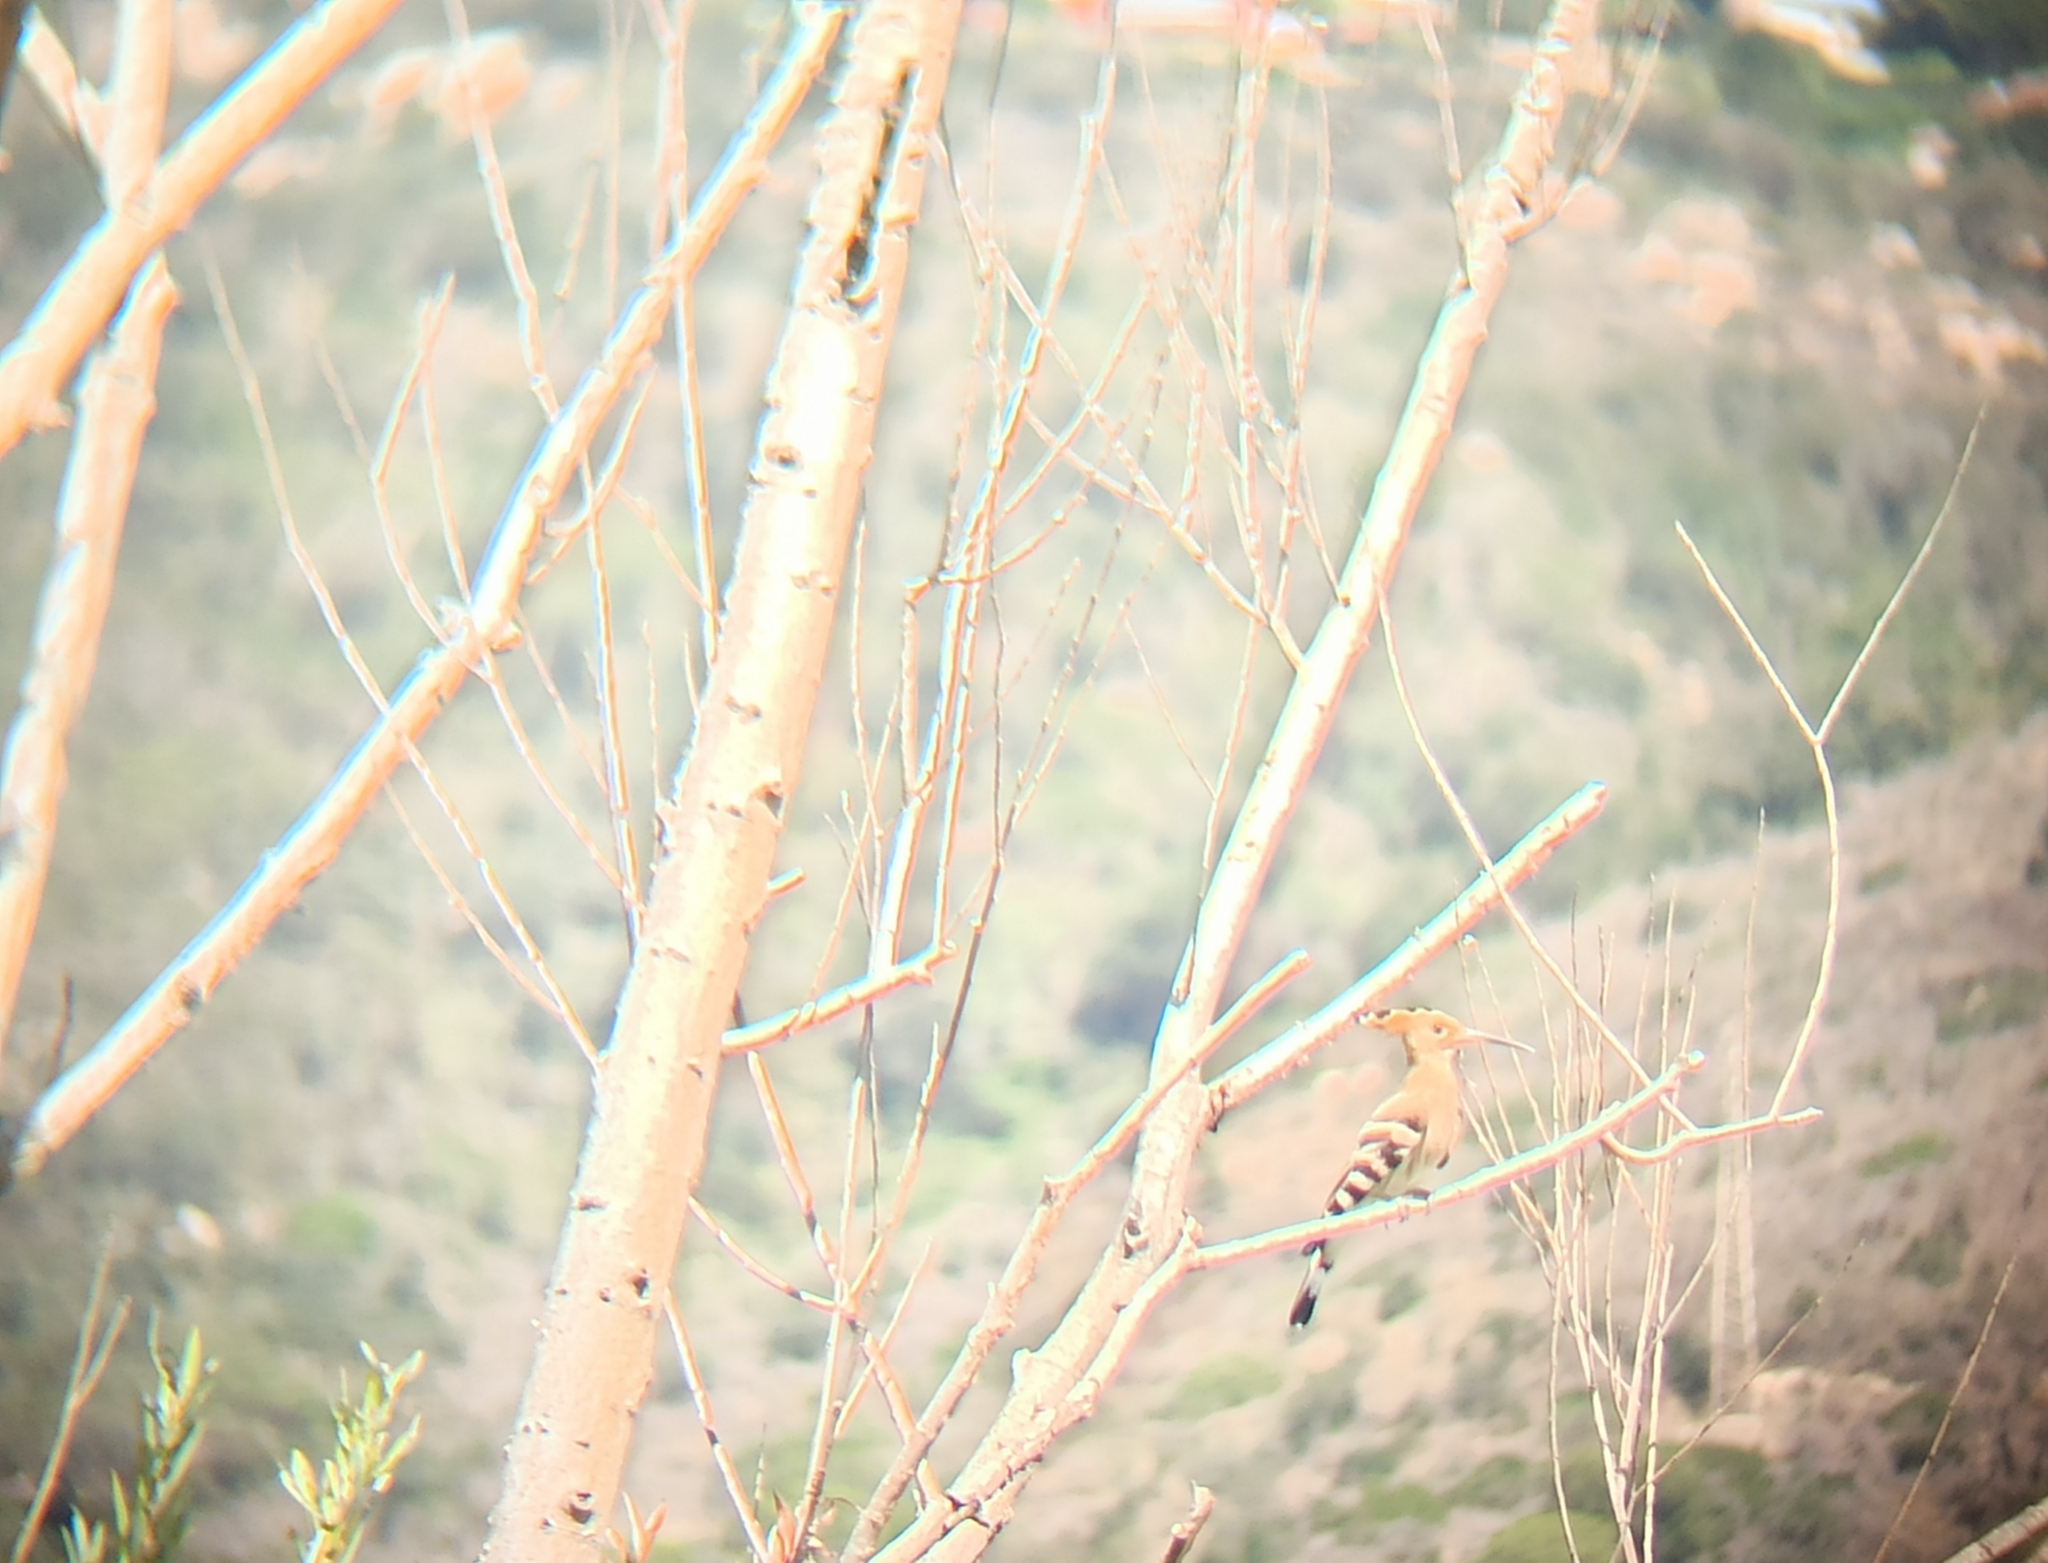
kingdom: Animalia
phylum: Chordata
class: Aves
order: Bucerotiformes
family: Upupidae
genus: Upupa
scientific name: Upupa epops
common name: Eurasian hoopoe
